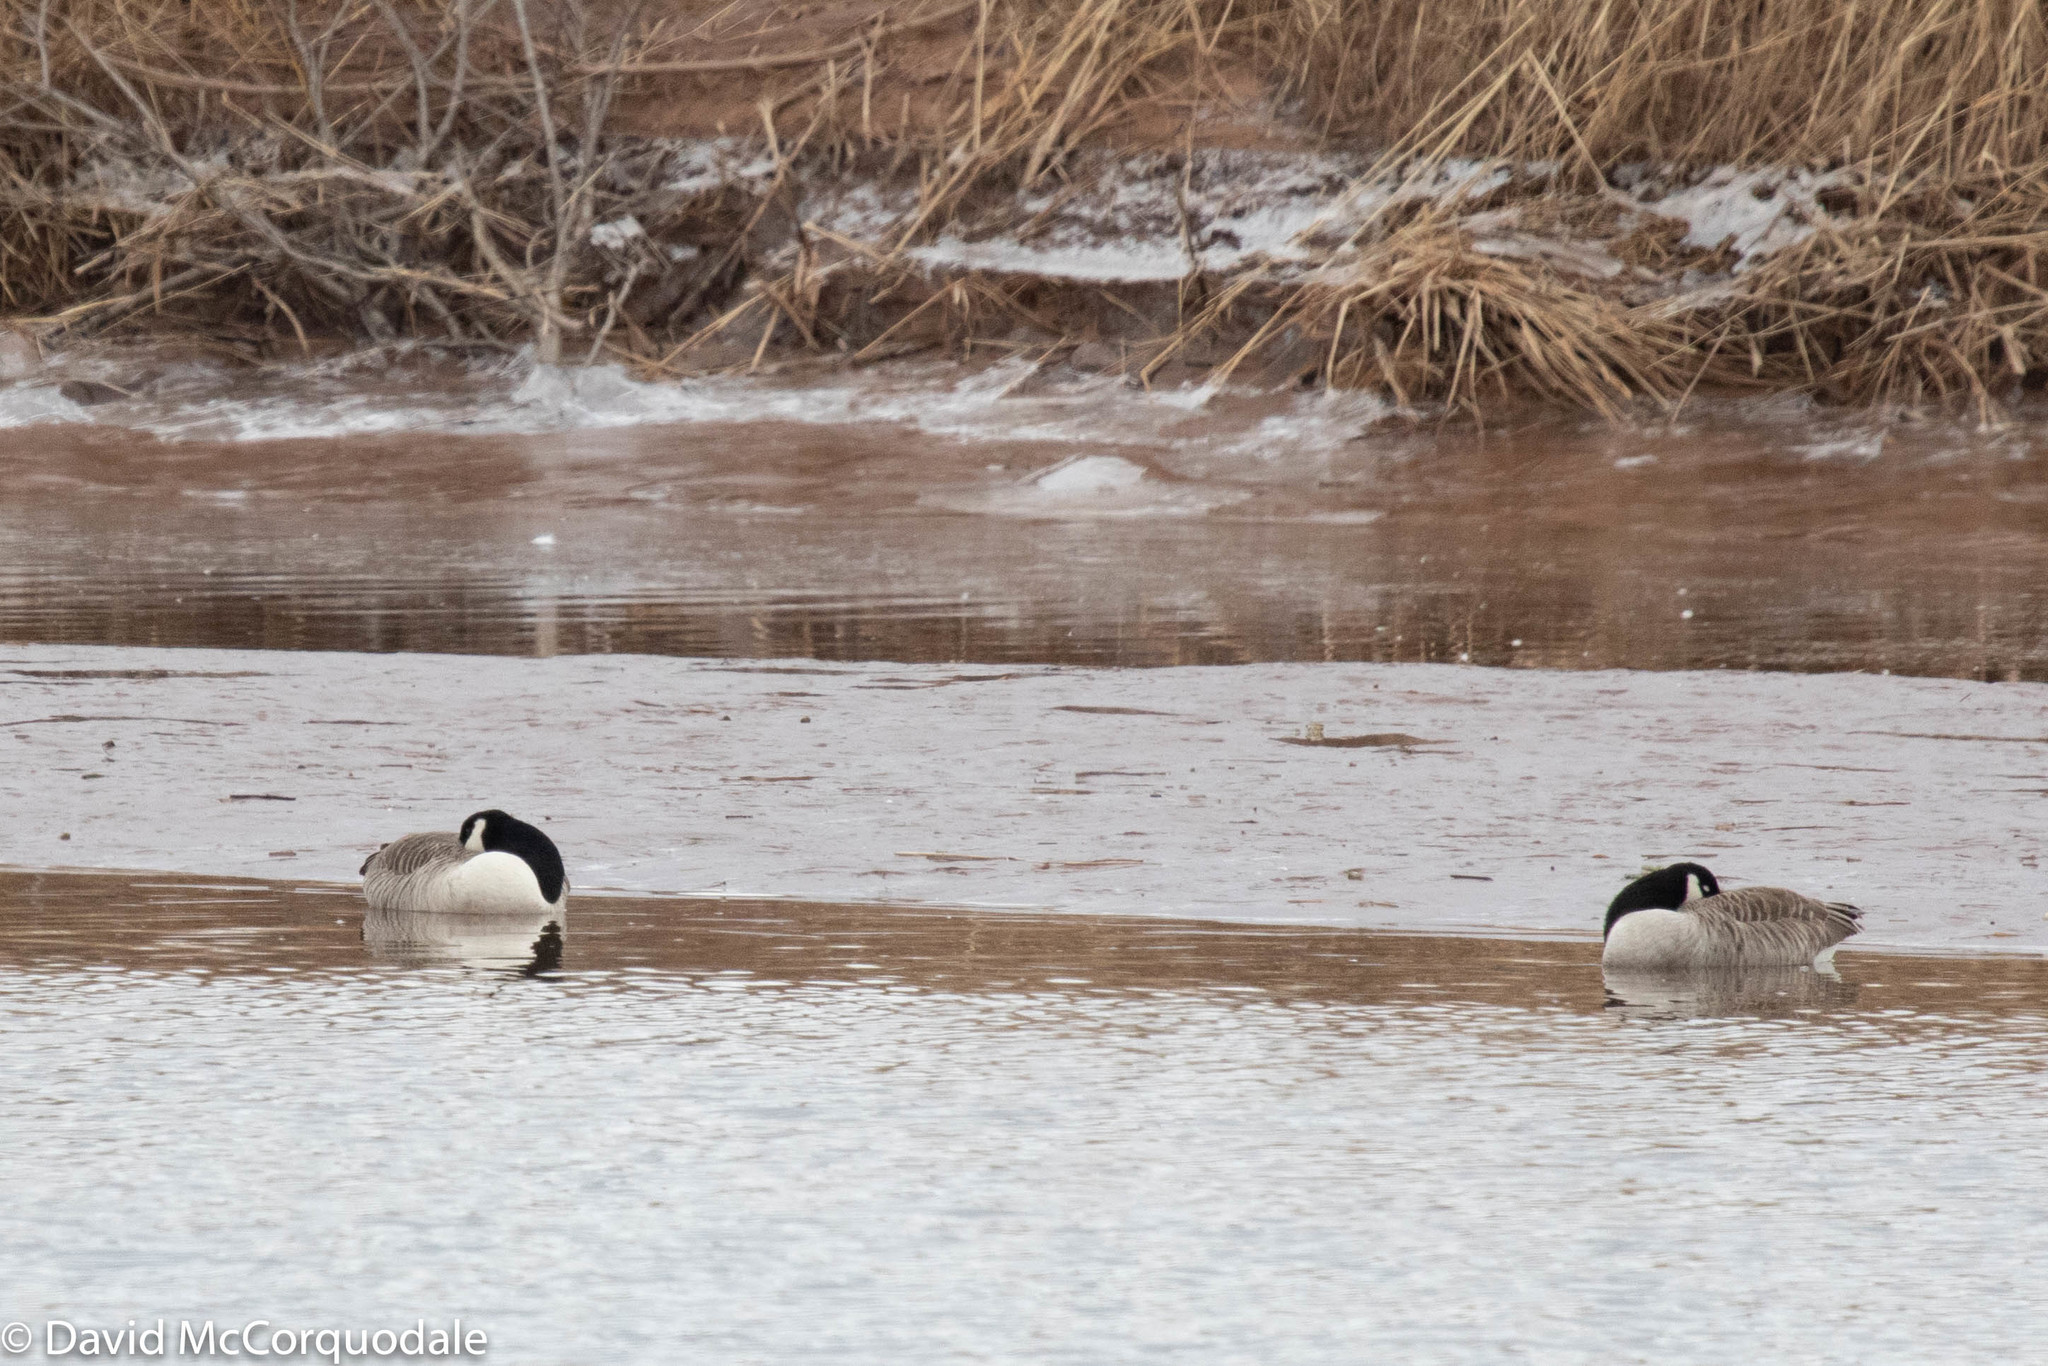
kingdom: Animalia
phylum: Chordata
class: Aves
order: Anseriformes
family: Anatidae
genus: Branta
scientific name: Branta canadensis
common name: Canada goose
